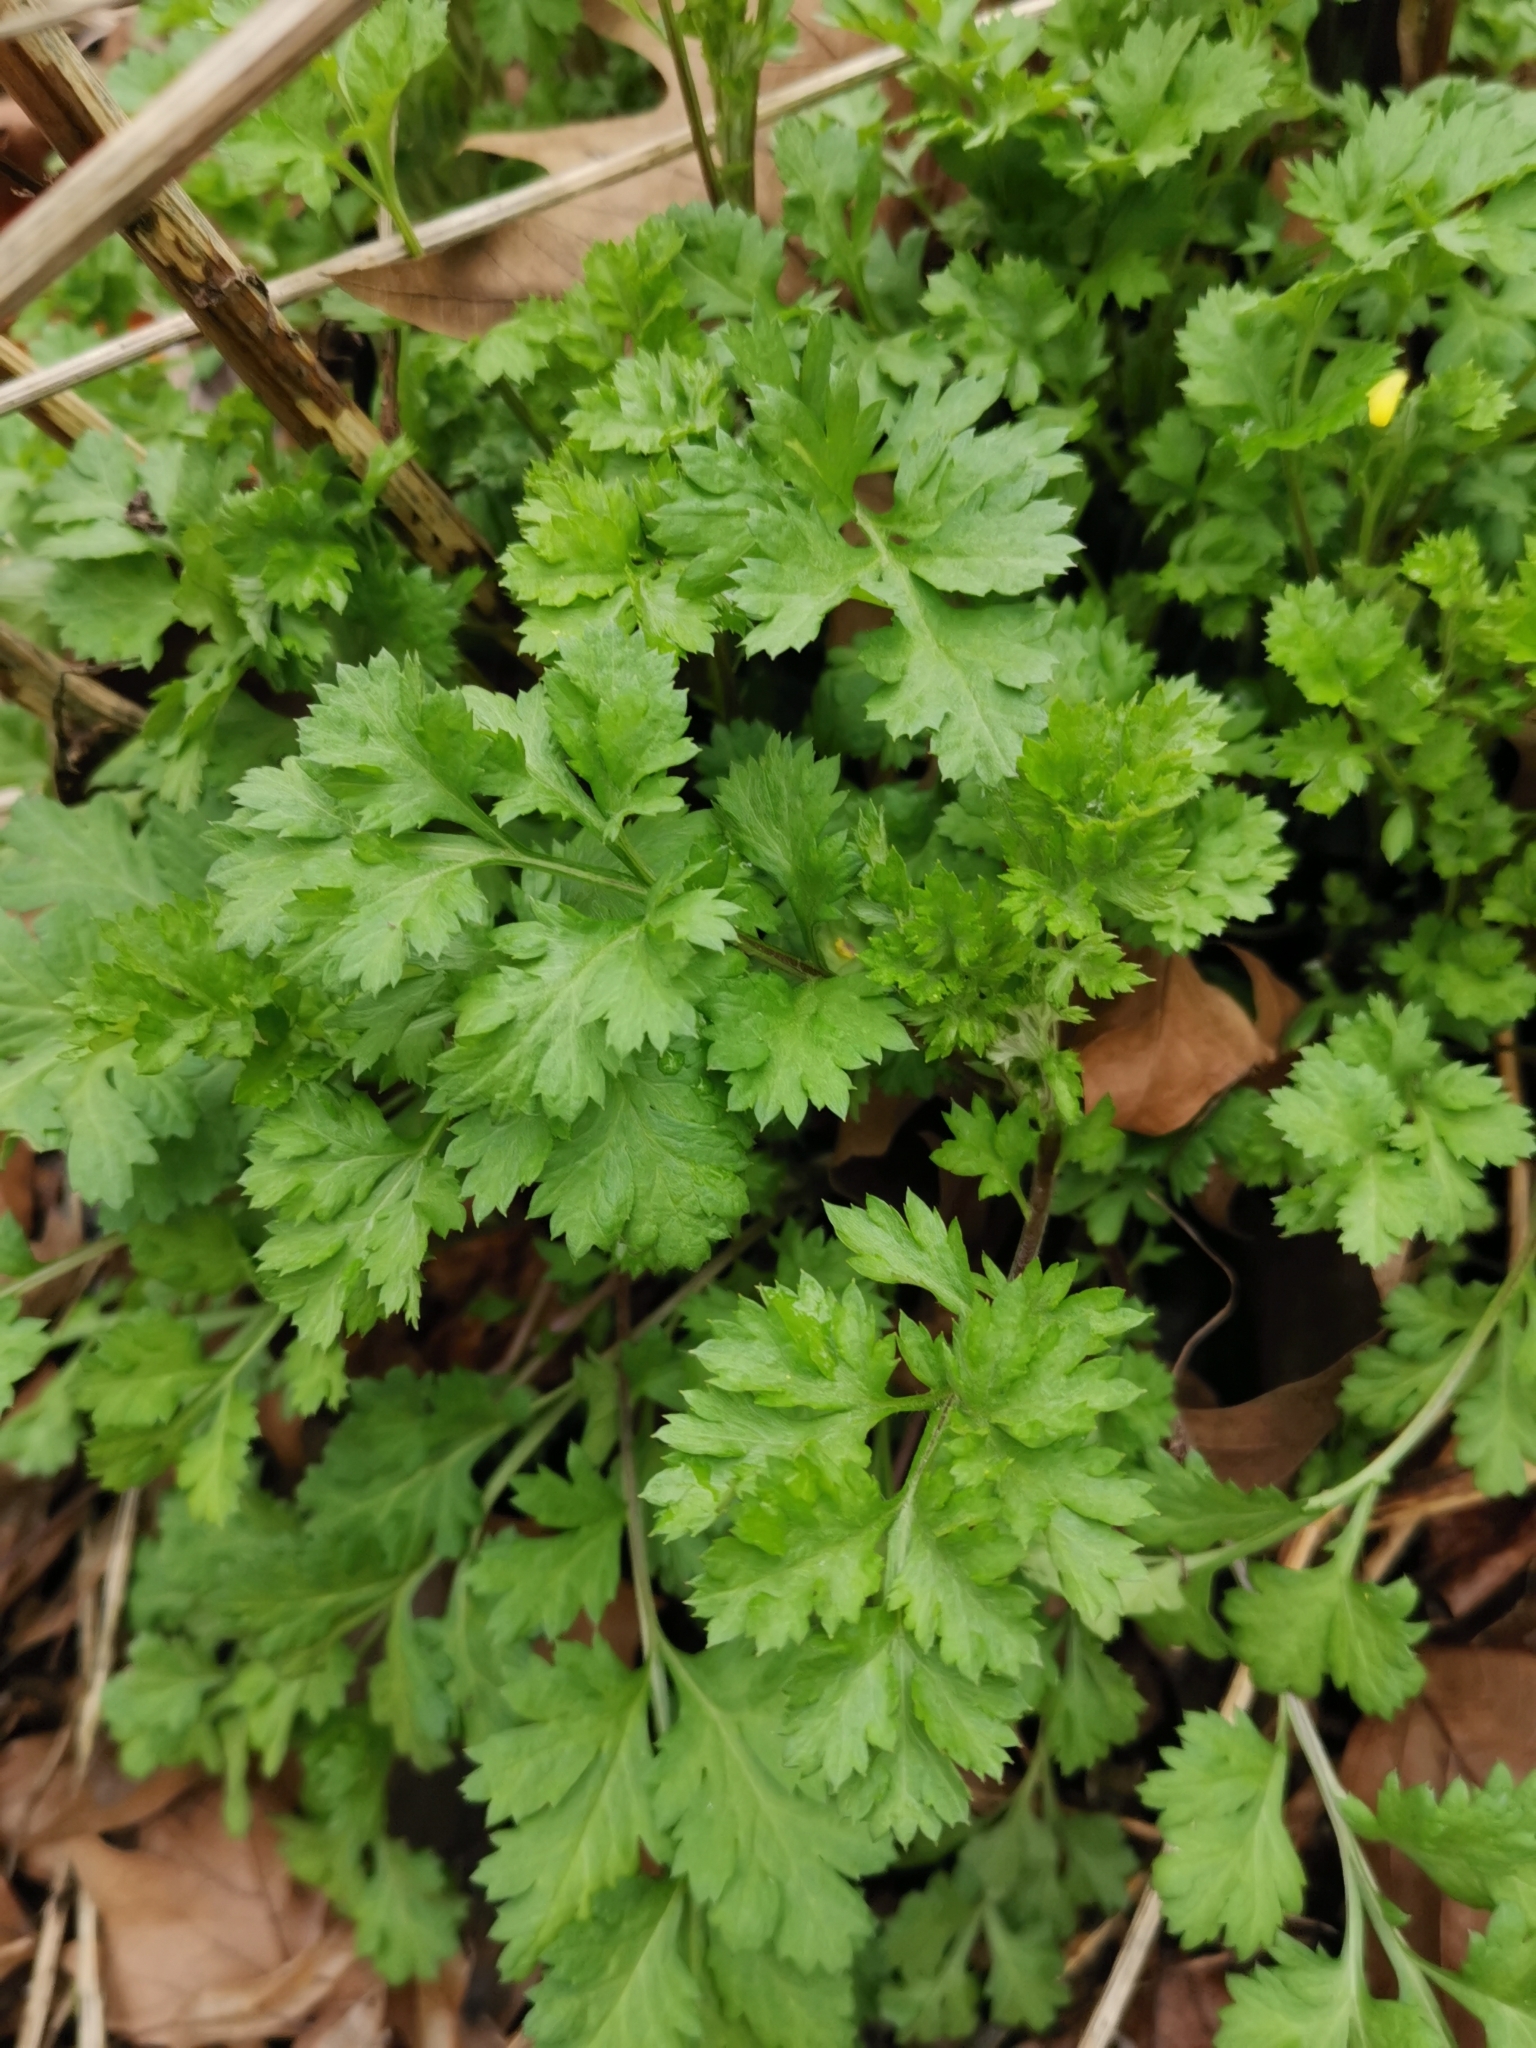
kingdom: Plantae
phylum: Tracheophyta
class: Magnoliopsida
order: Asterales
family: Asteraceae
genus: Artemisia
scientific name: Artemisia vulgaris
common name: Mugwort
